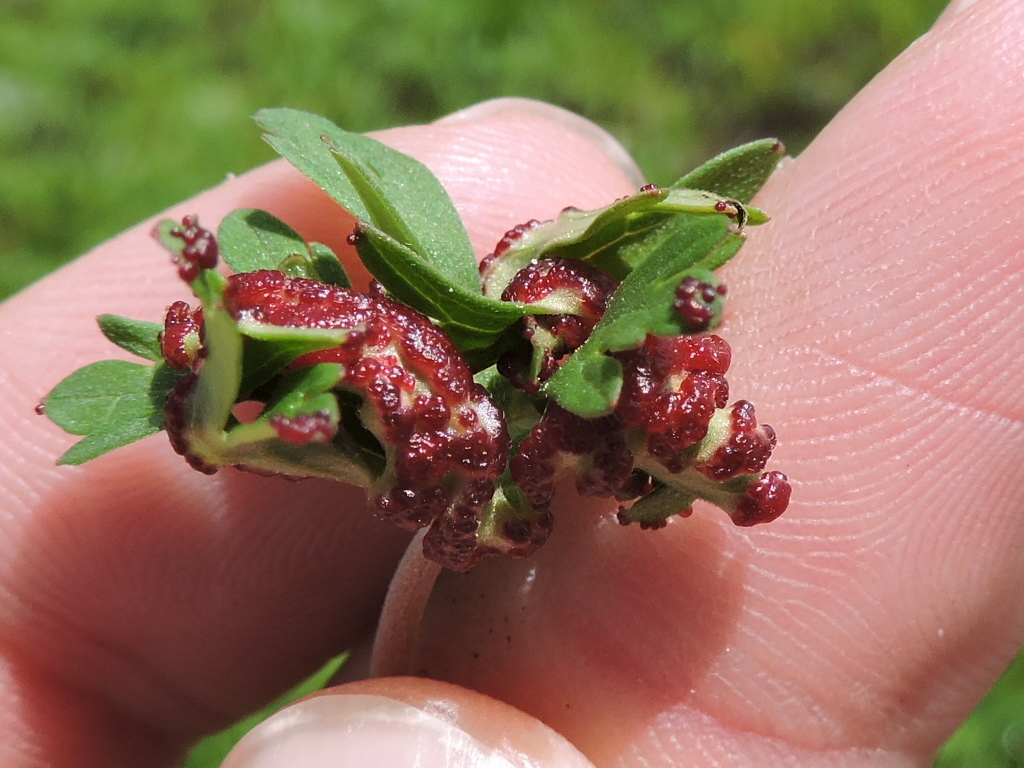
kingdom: Fungi
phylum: Chytridiomycota
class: Chytridiomycetes
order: Chytridiales
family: Synchytriaceae
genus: Synchytrium
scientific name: Synchytrium geranii
